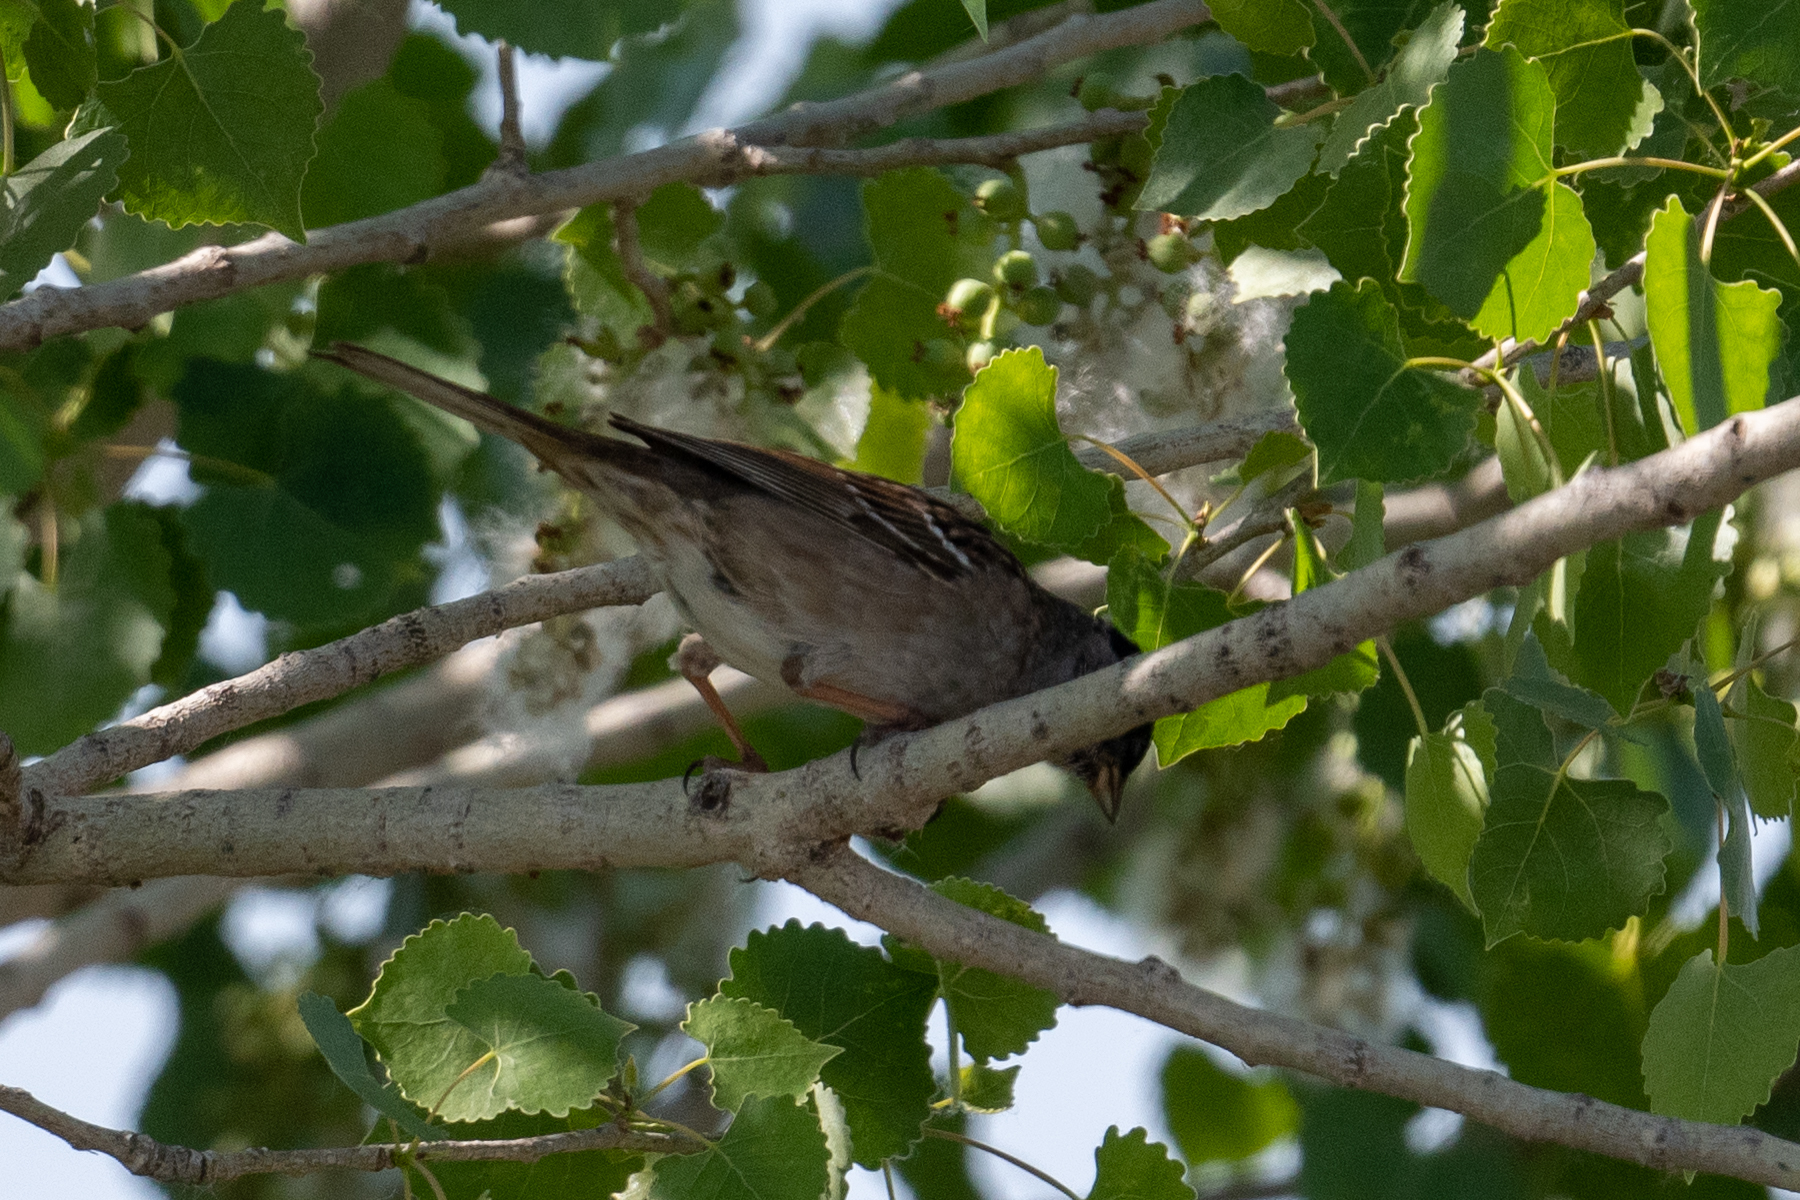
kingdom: Animalia
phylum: Chordata
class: Aves
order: Passeriformes
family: Passerellidae
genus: Zonotrichia
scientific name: Zonotrichia atricapilla
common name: Golden-crowned sparrow
